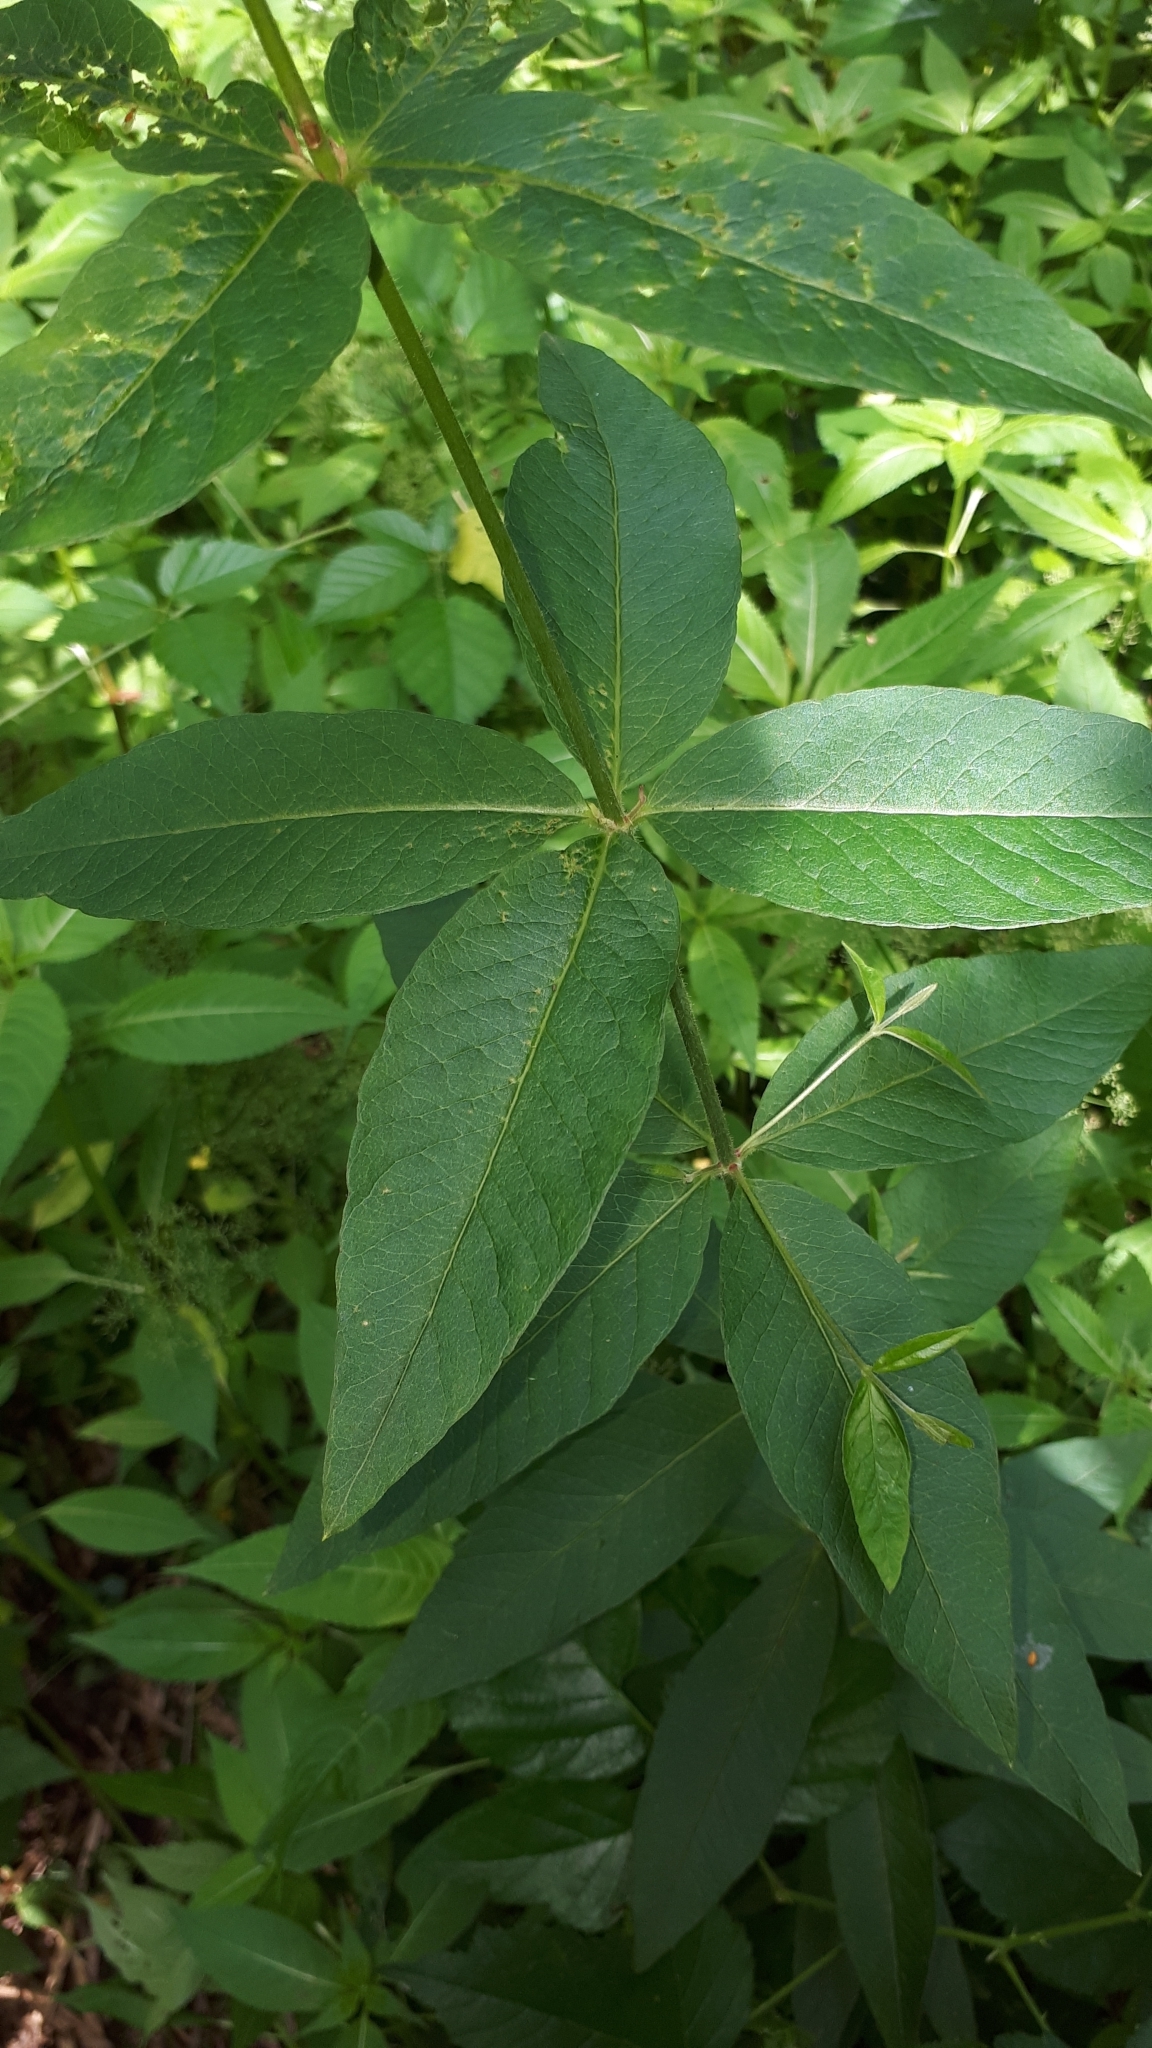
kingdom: Plantae
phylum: Tracheophyta
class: Magnoliopsida
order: Ericales
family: Primulaceae
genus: Lysimachia
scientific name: Lysimachia vulgaris
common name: Yellow loosestrife
